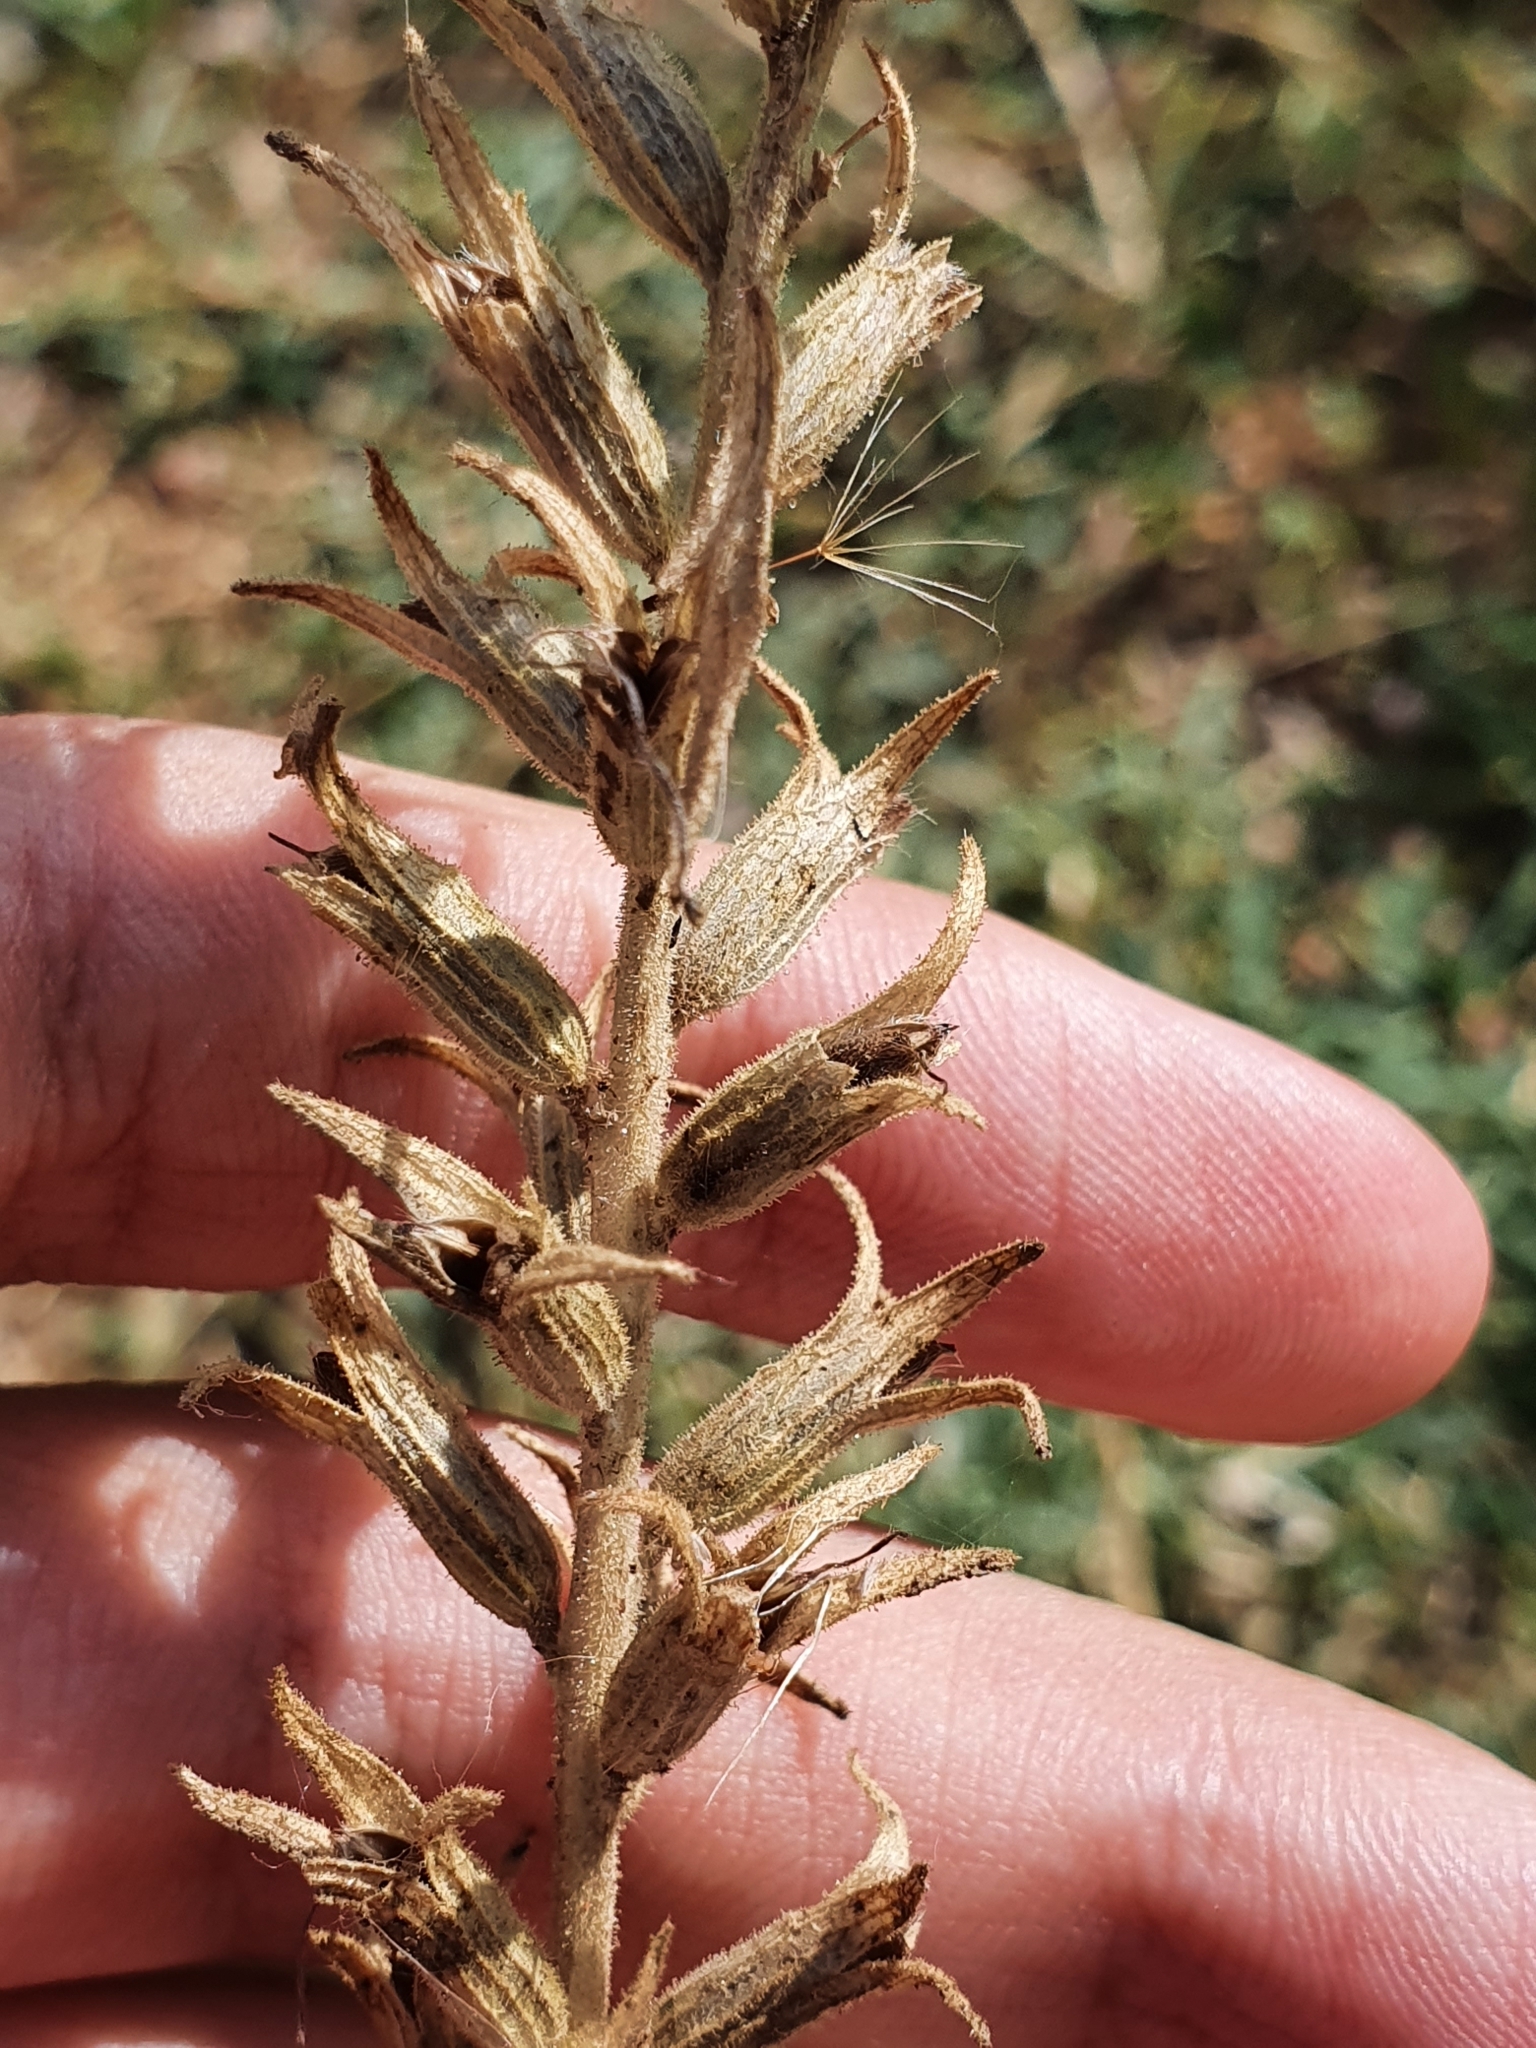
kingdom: Plantae
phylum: Tracheophyta
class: Magnoliopsida
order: Lamiales
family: Orobanchaceae
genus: Bellardia
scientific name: Bellardia viscosa
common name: Sticky parentucellia
